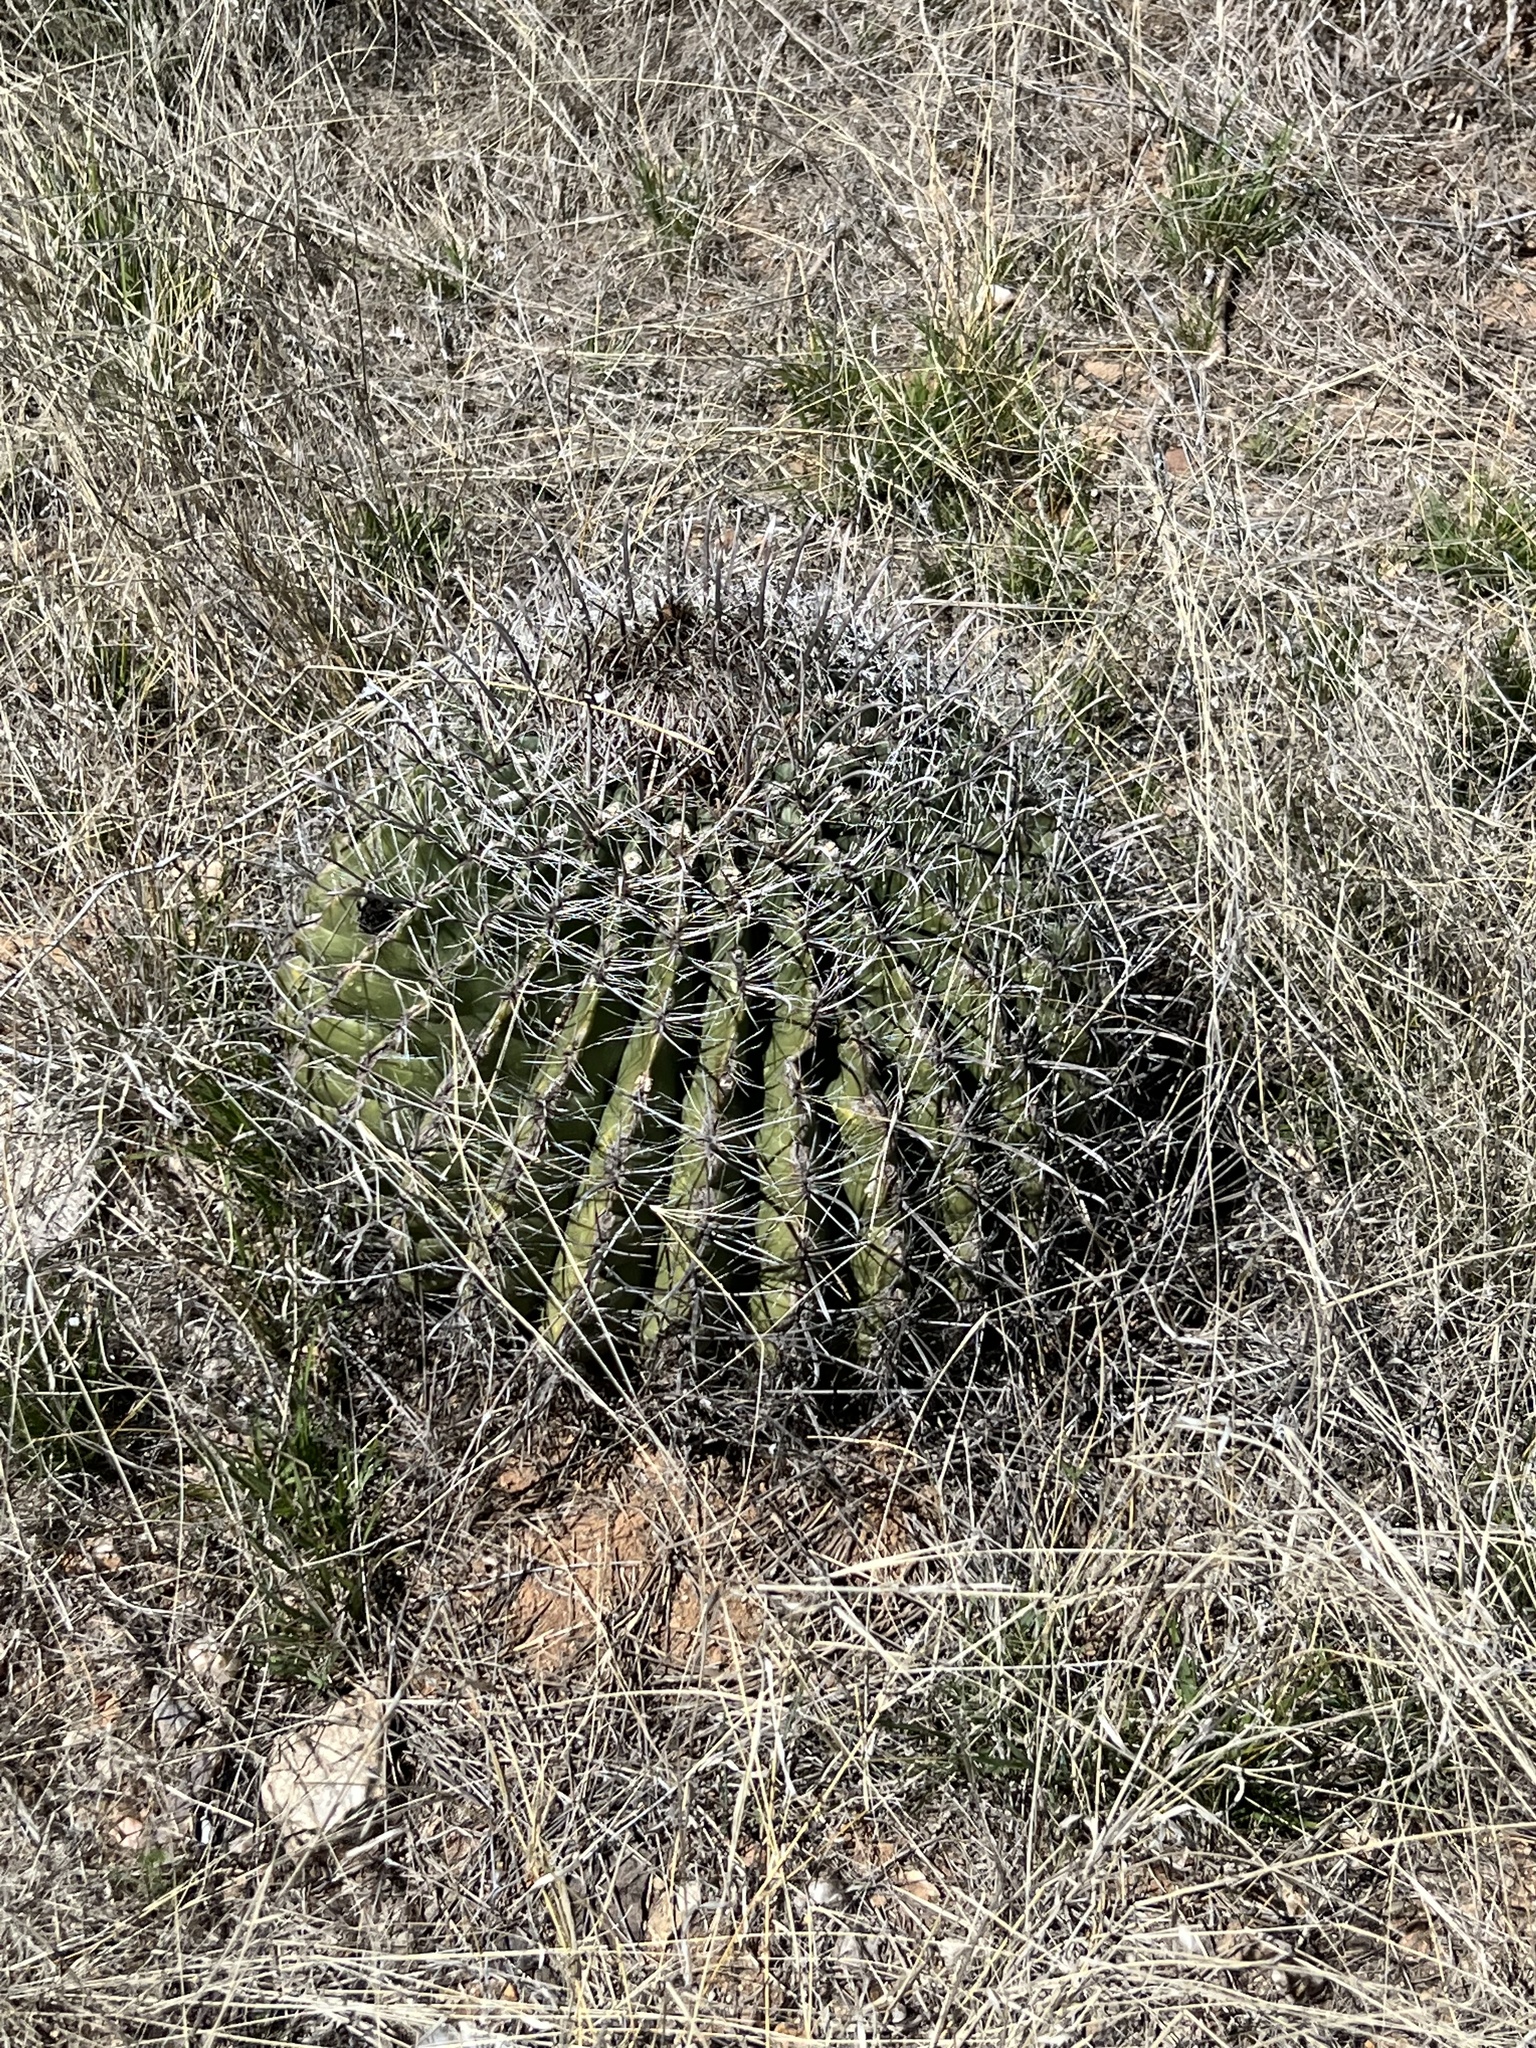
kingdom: Plantae
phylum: Tracheophyta
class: Magnoliopsida
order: Caryophyllales
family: Cactaceae
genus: Ferocactus
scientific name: Ferocactus wislizeni
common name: Candy barrel cactus
